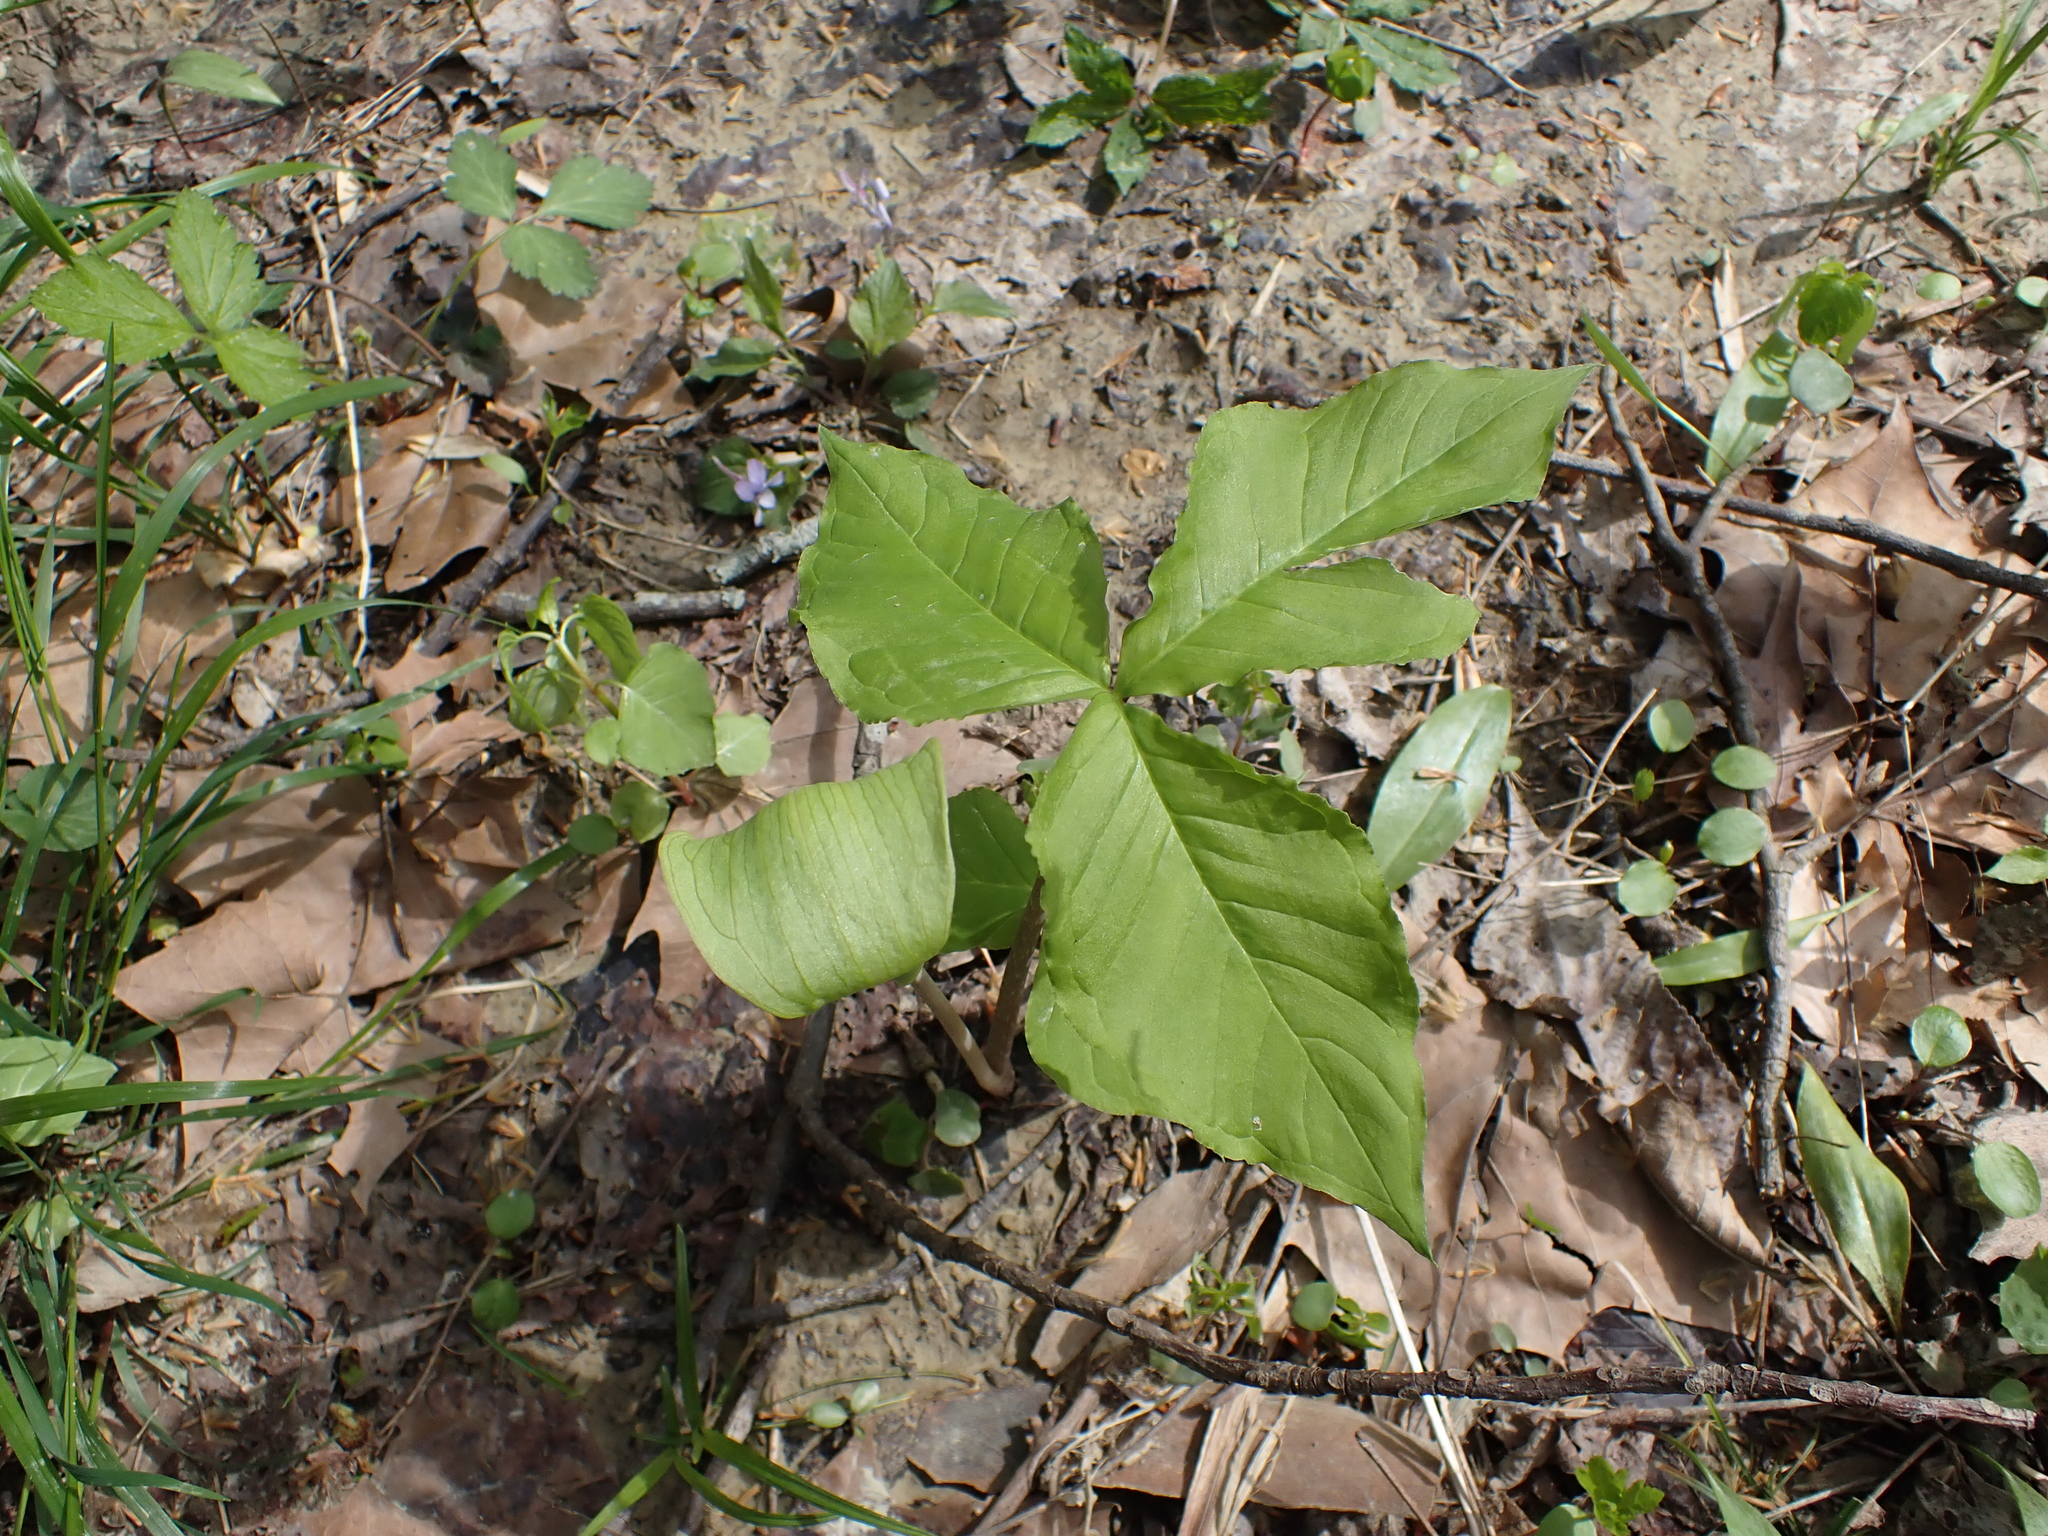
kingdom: Plantae
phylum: Tracheophyta
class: Liliopsida
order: Alismatales
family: Araceae
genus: Arisaema
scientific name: Arisaema triphyllum
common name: Jack-in-the-pulpit
